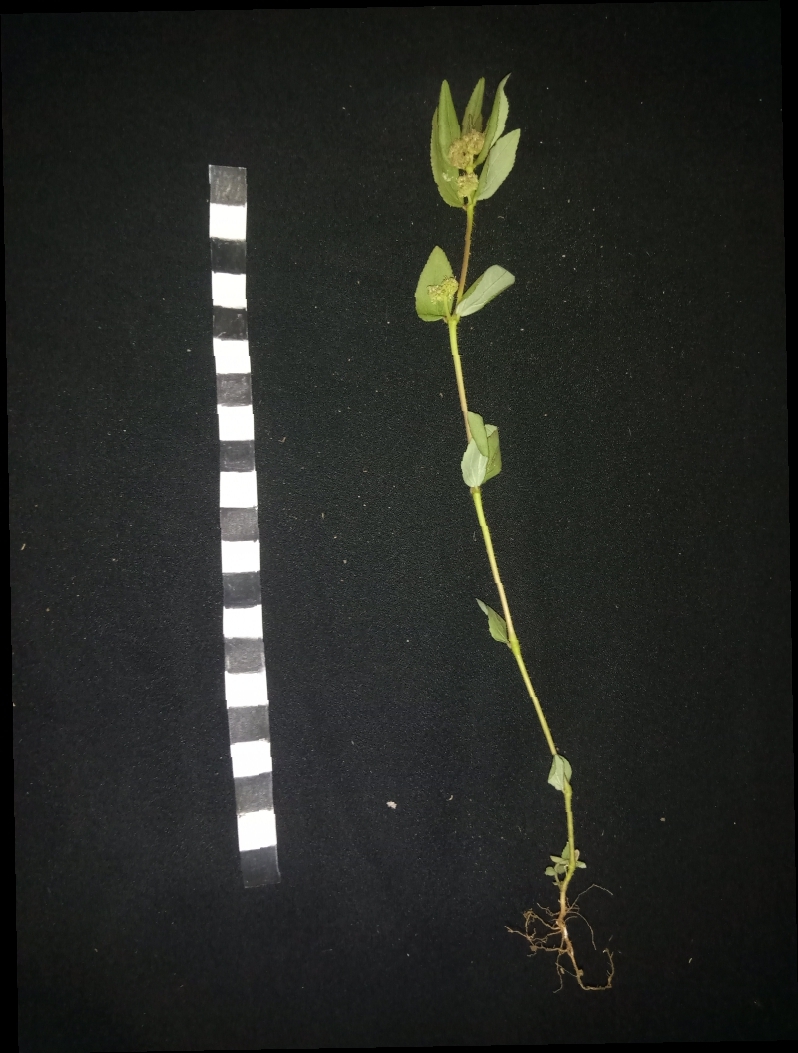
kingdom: Plantae
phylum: Tracheophyta
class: Magnoliopsida
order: Malpighiales
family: Euphorbiaceae
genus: Euphorbia
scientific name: Euphorbia hirta
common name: Pillpod sandmat
